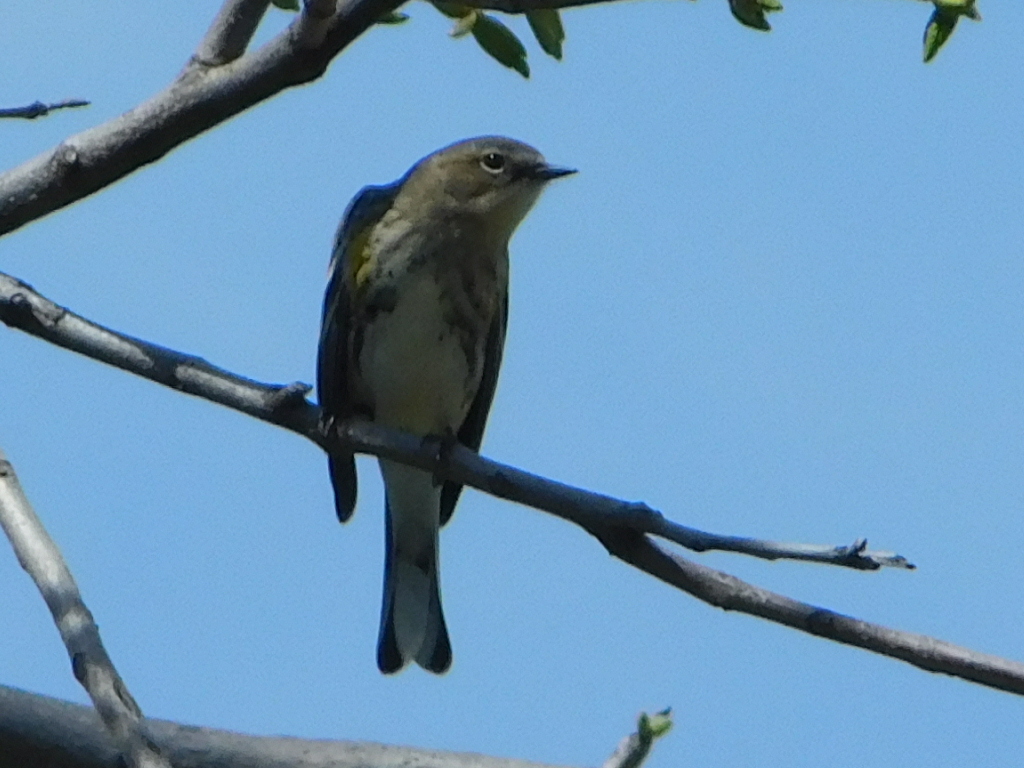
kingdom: Animalia
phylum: Chordata
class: Aves
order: Passeriformes
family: Parulidae
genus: Setophaga
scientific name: Setophaga coronata
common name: Myrtle warbler
